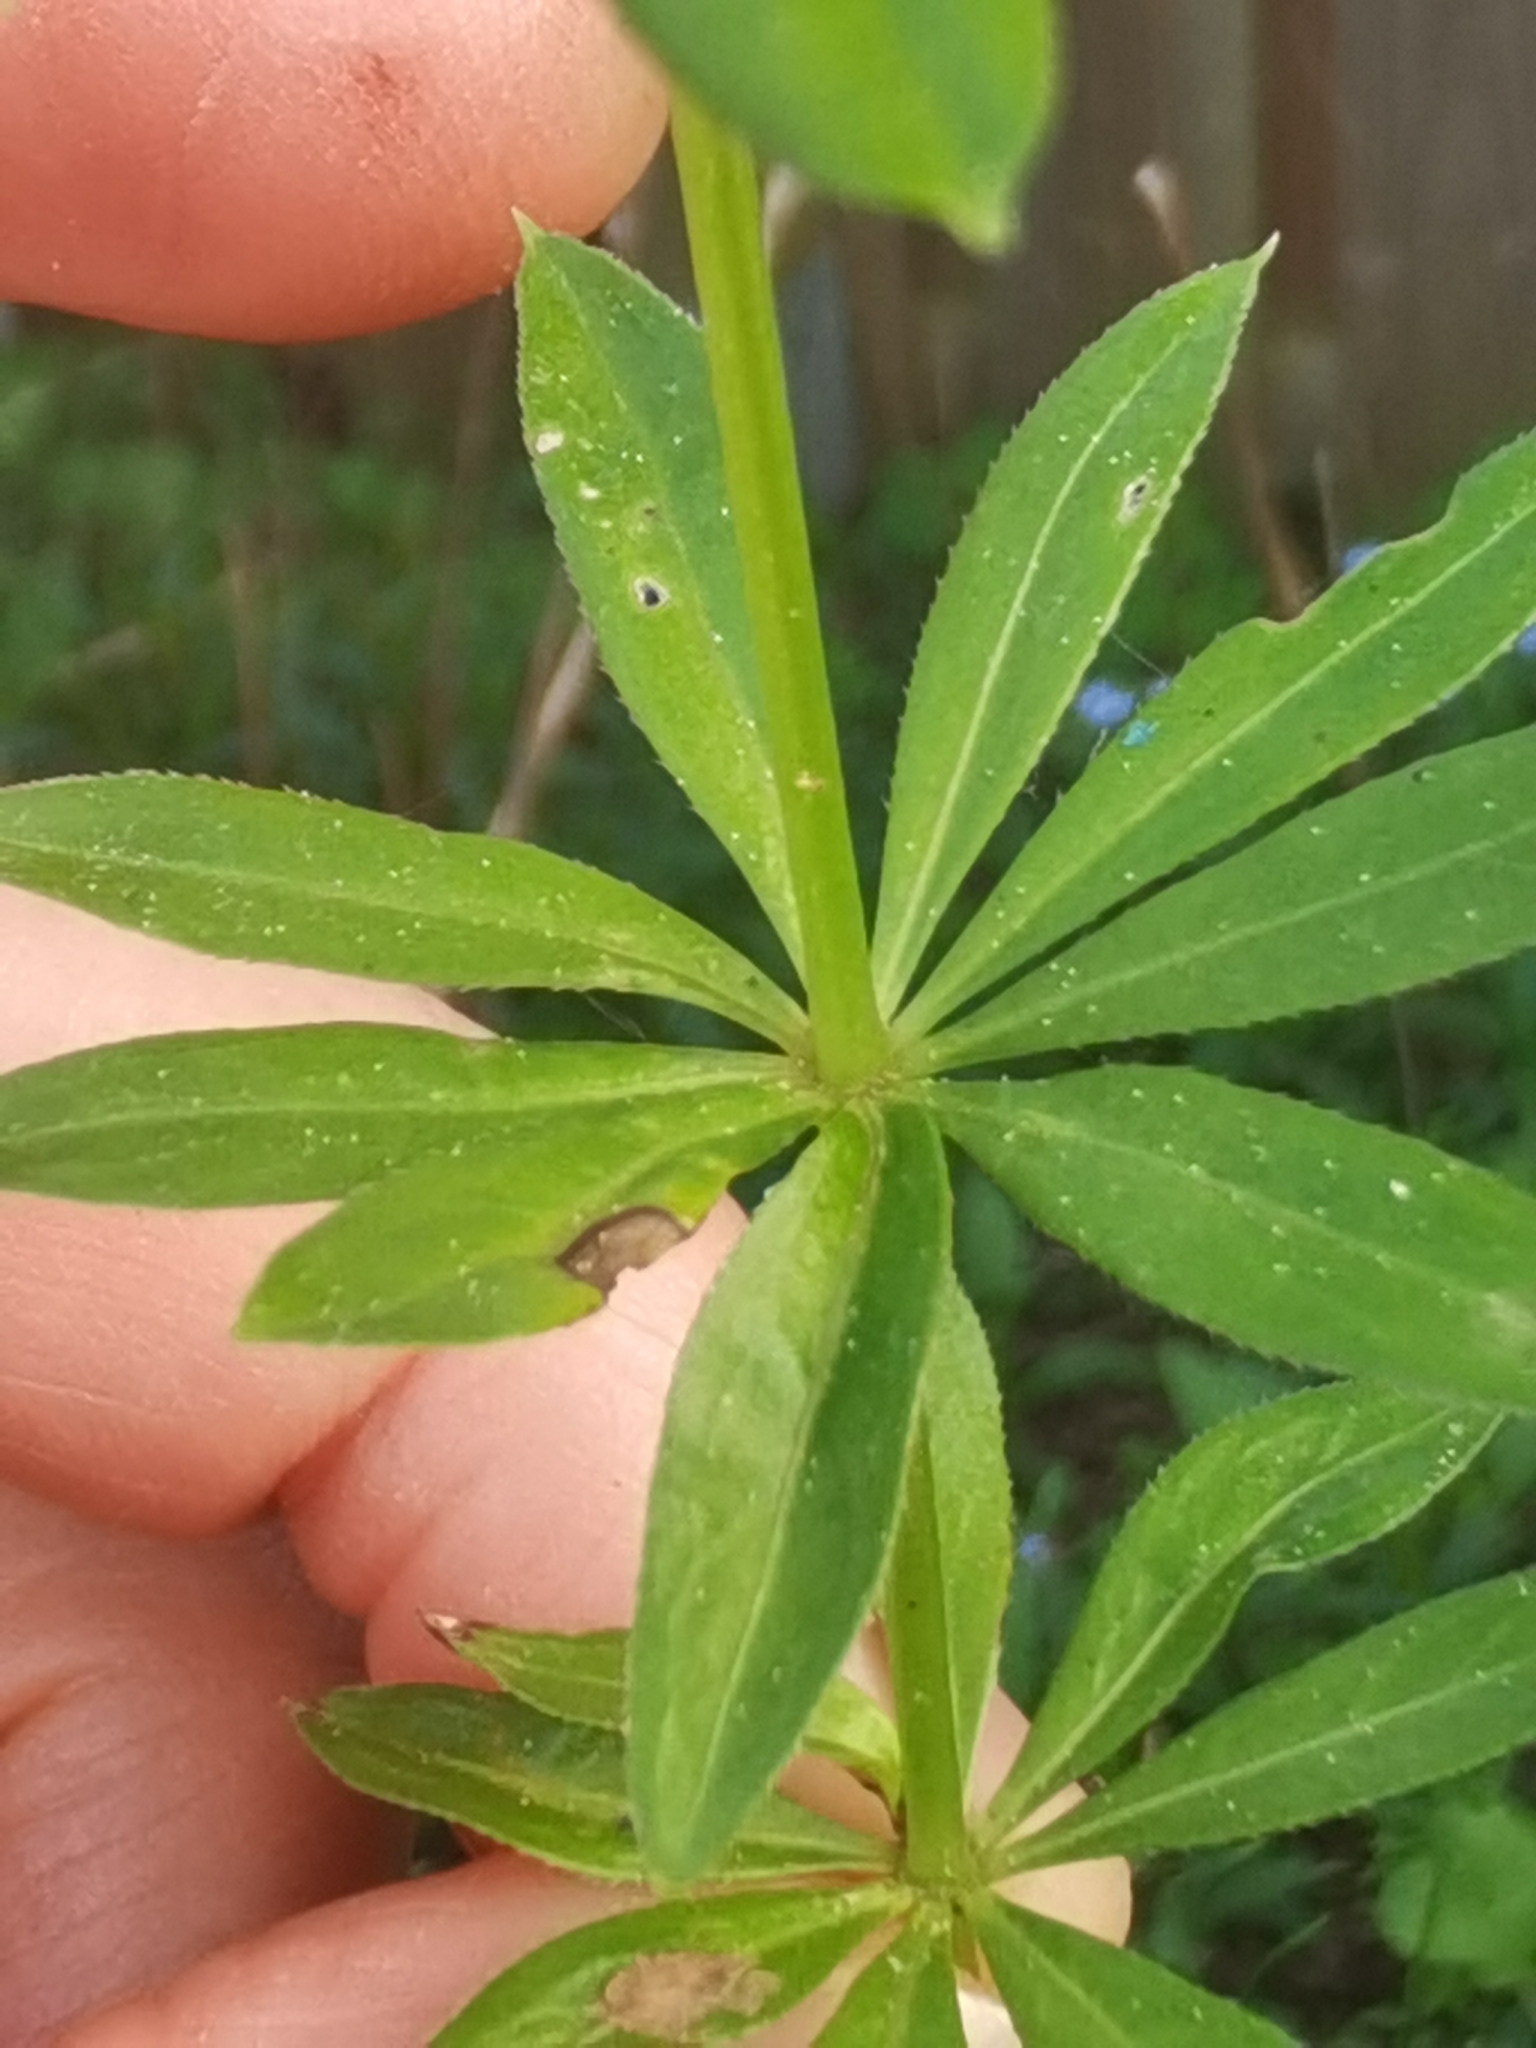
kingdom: Plantae
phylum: Tracheophyta
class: Magnoliopsida
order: Gentianales
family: Rubiaceae
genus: Galium
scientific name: Galium odoratum
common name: Sweet woodruff
